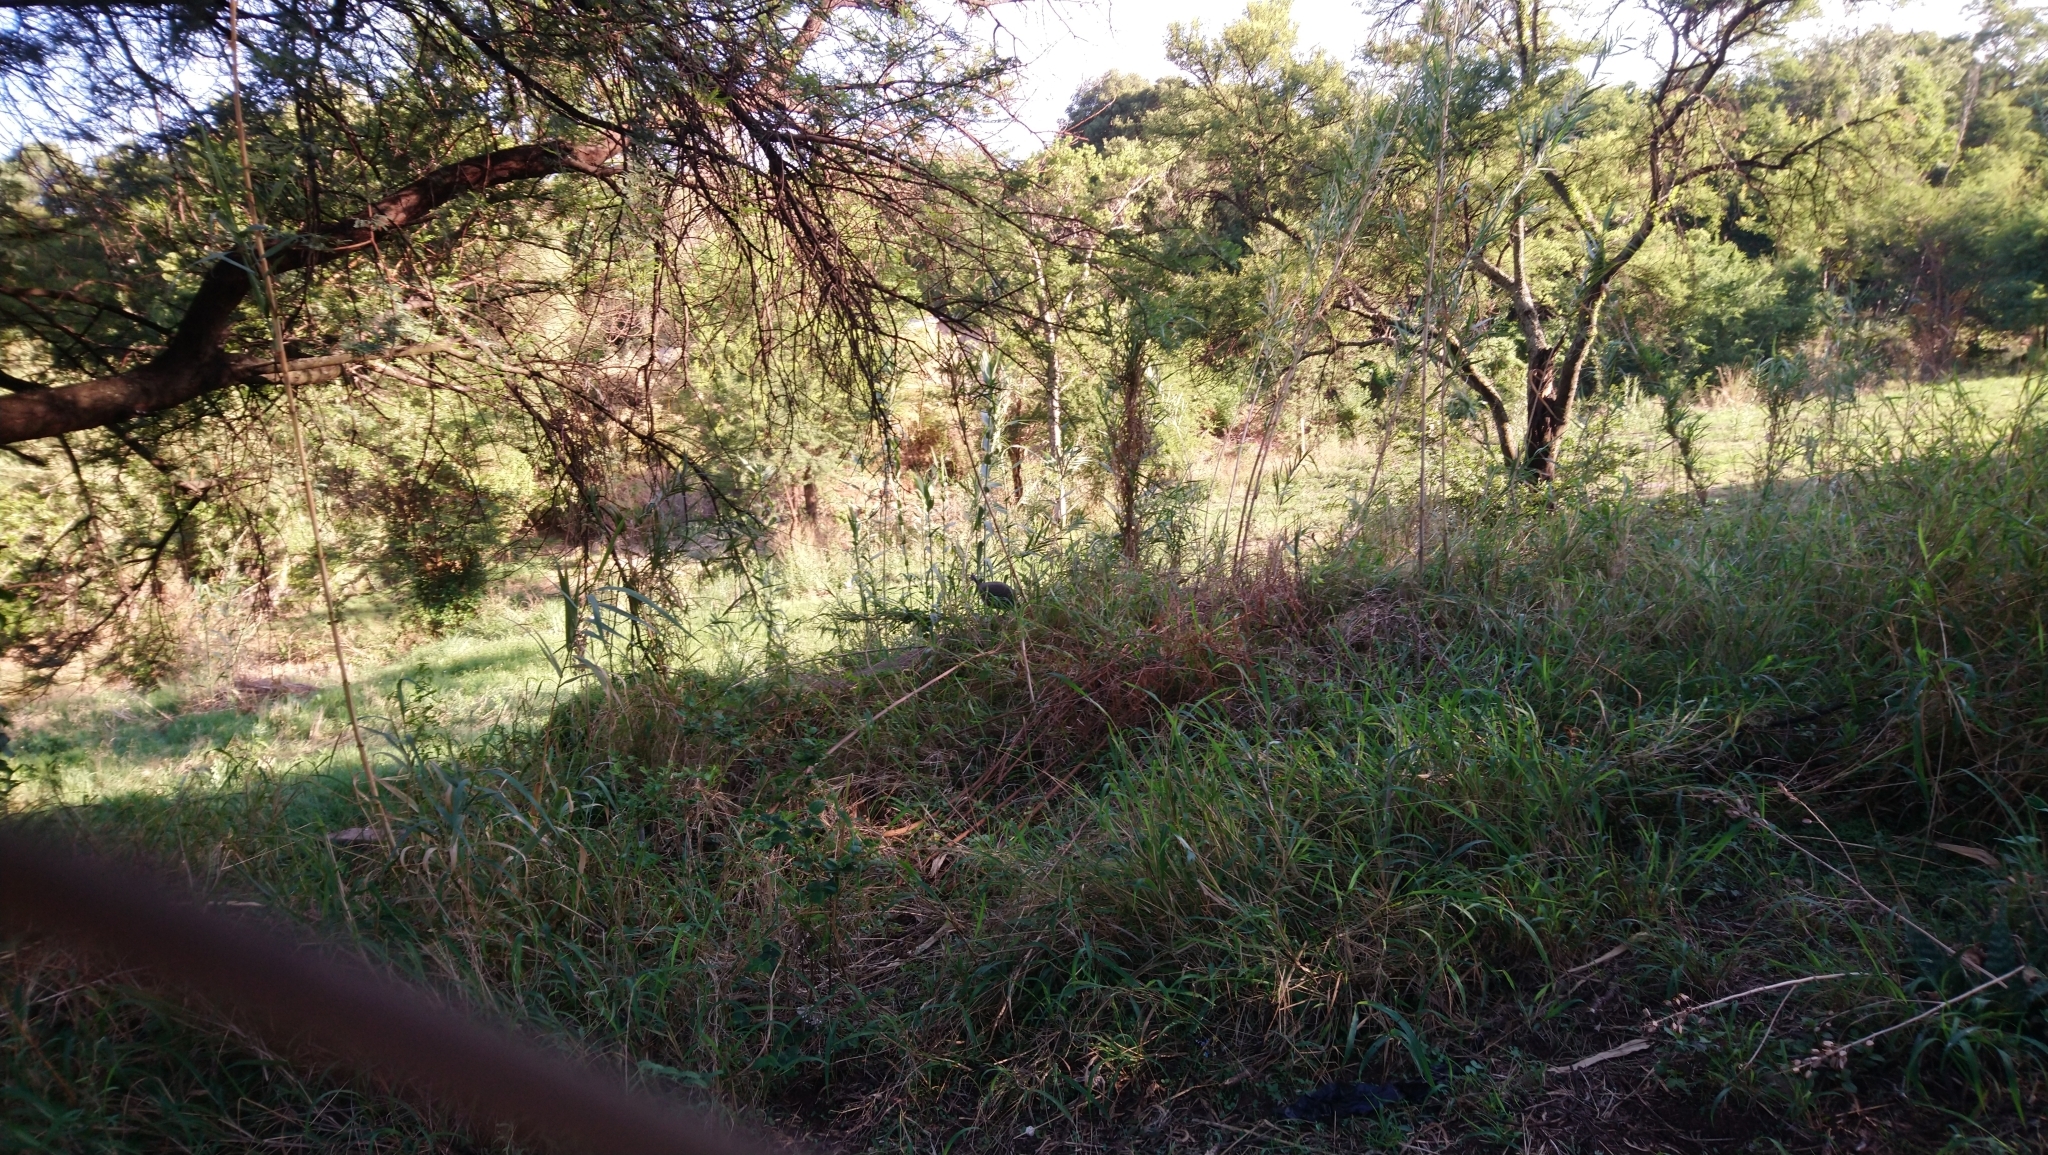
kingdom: Animalia
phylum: Chordata
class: Aves
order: Galliformes
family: Numididae
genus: Numida
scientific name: Numida meleagris
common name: Helmeted guineafowl
